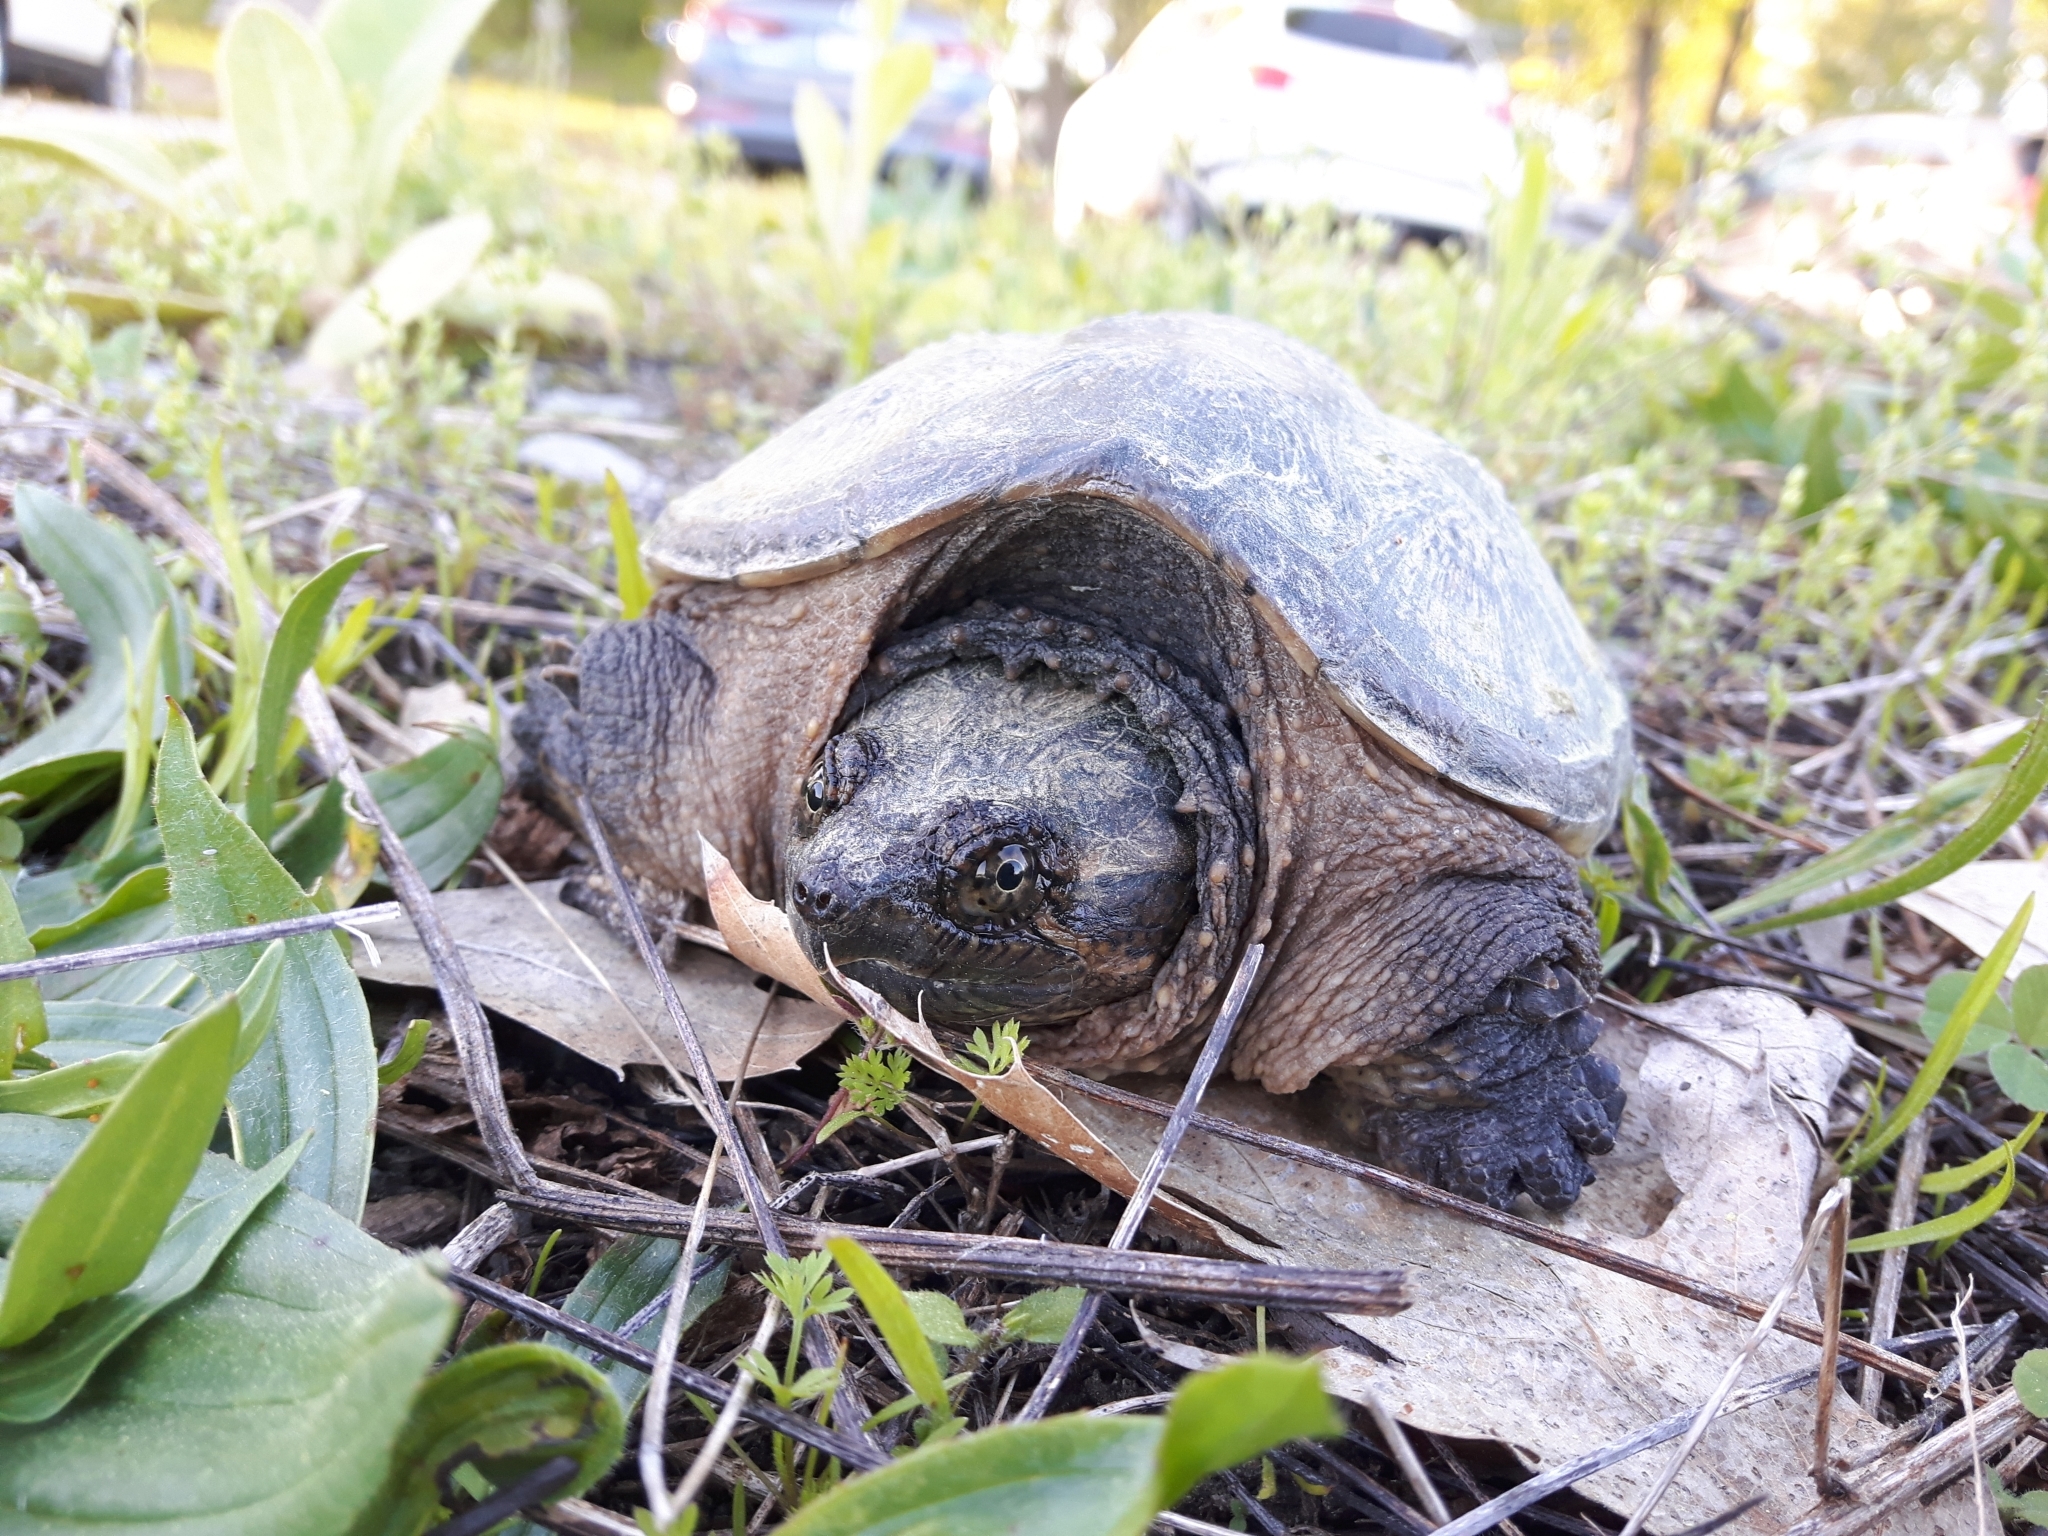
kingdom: Animalia
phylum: Chordata
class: Testudines
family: Chelydridae
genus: Chelydra
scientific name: Chelydra serpentina
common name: Common snapping turtle
